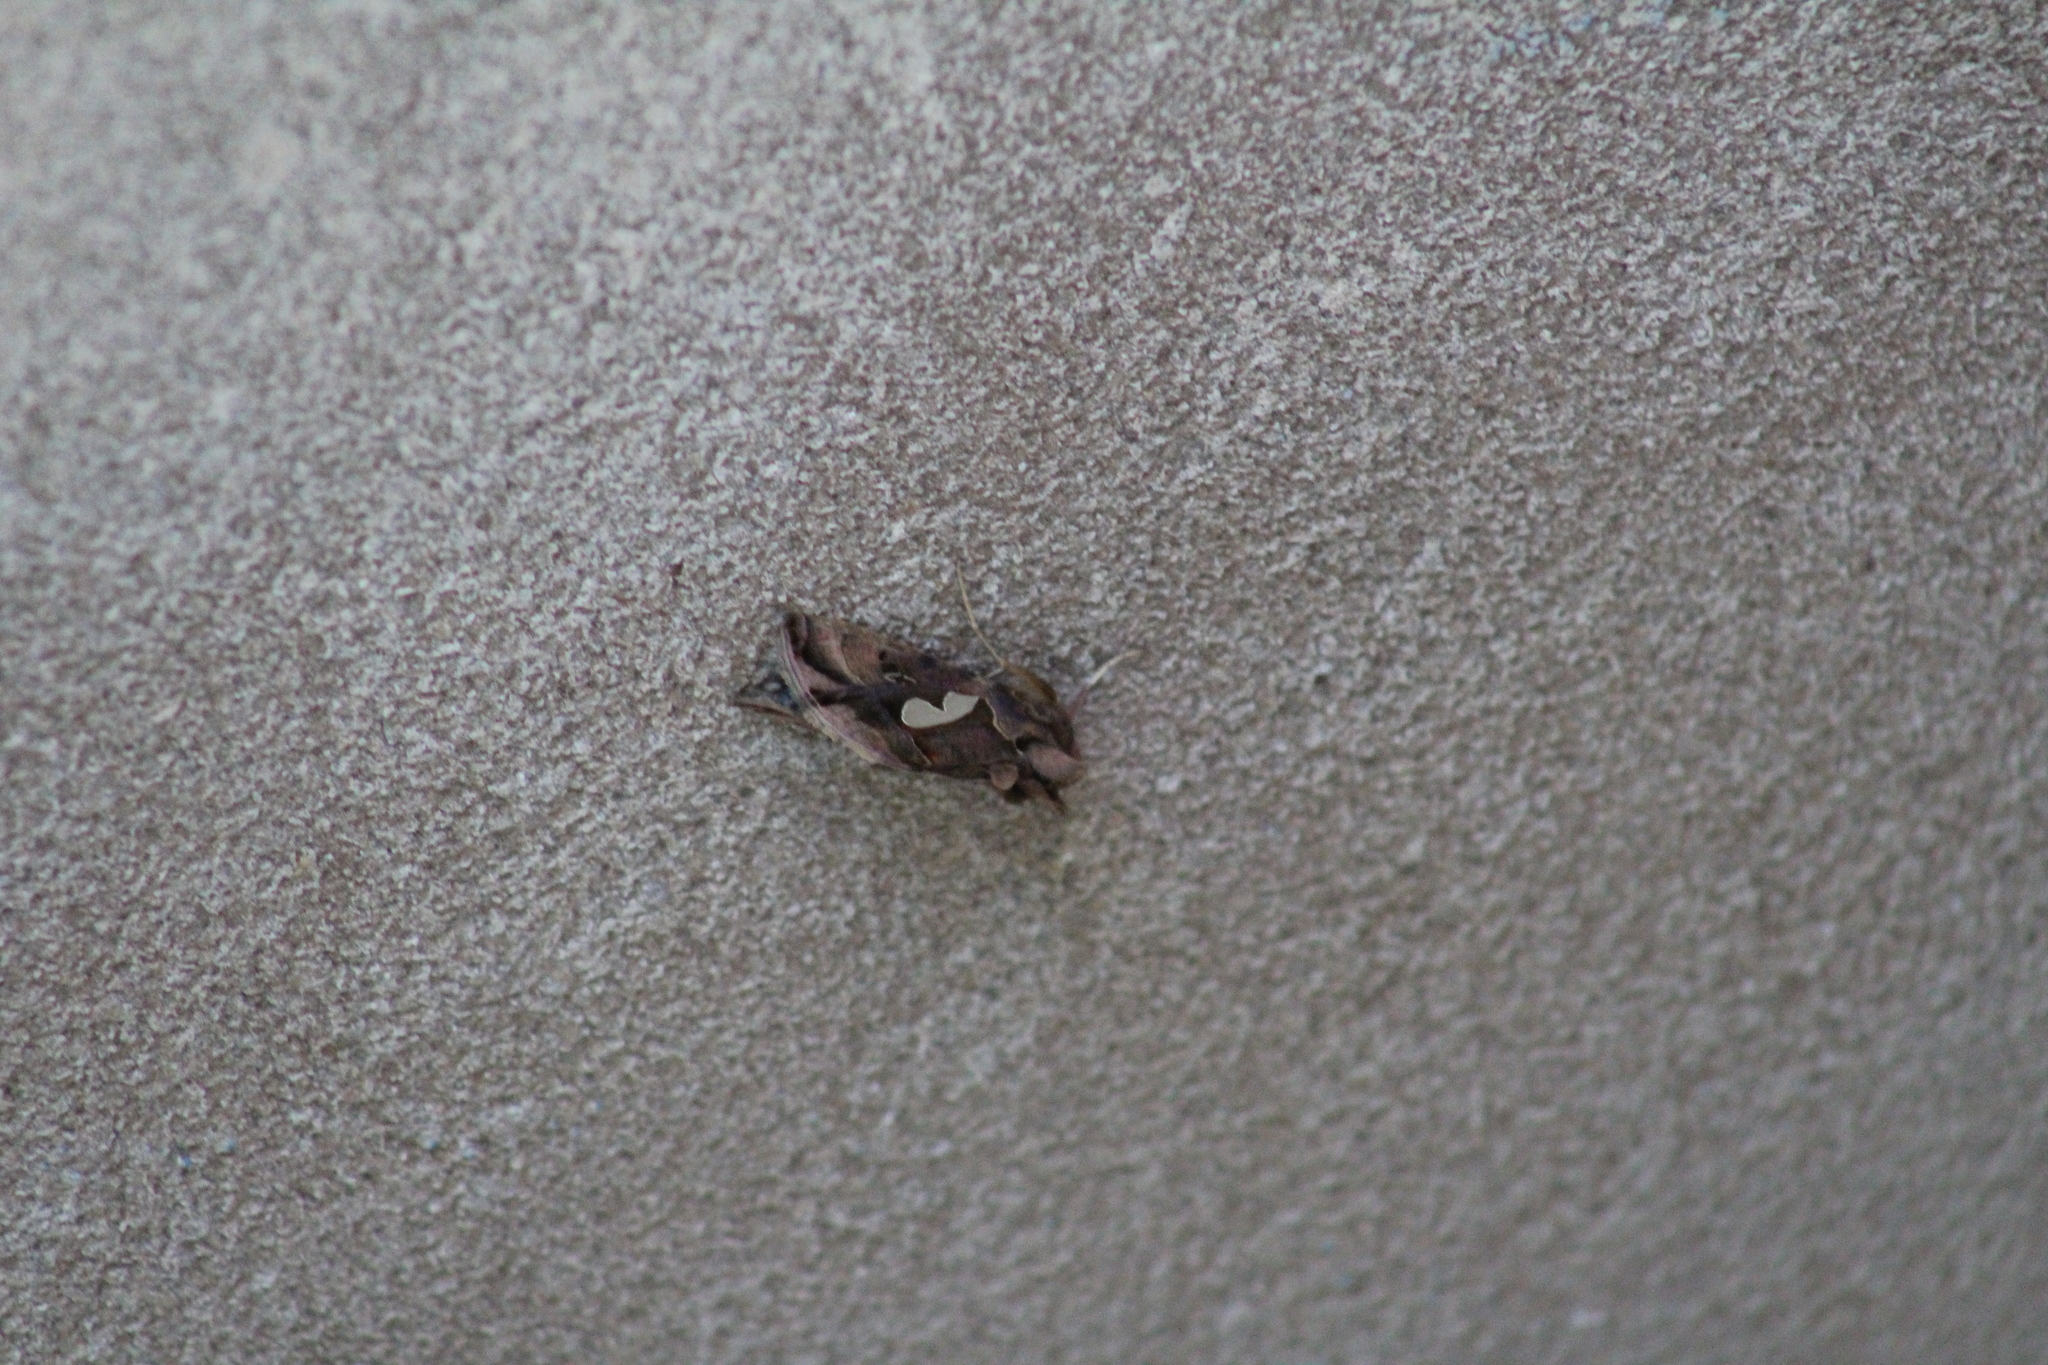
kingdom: Animalia
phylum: Arthropoda
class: Insecta
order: Lepidoptera
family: Noctuidae
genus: Megalographa
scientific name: Megalographa biloba
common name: Cutworm
